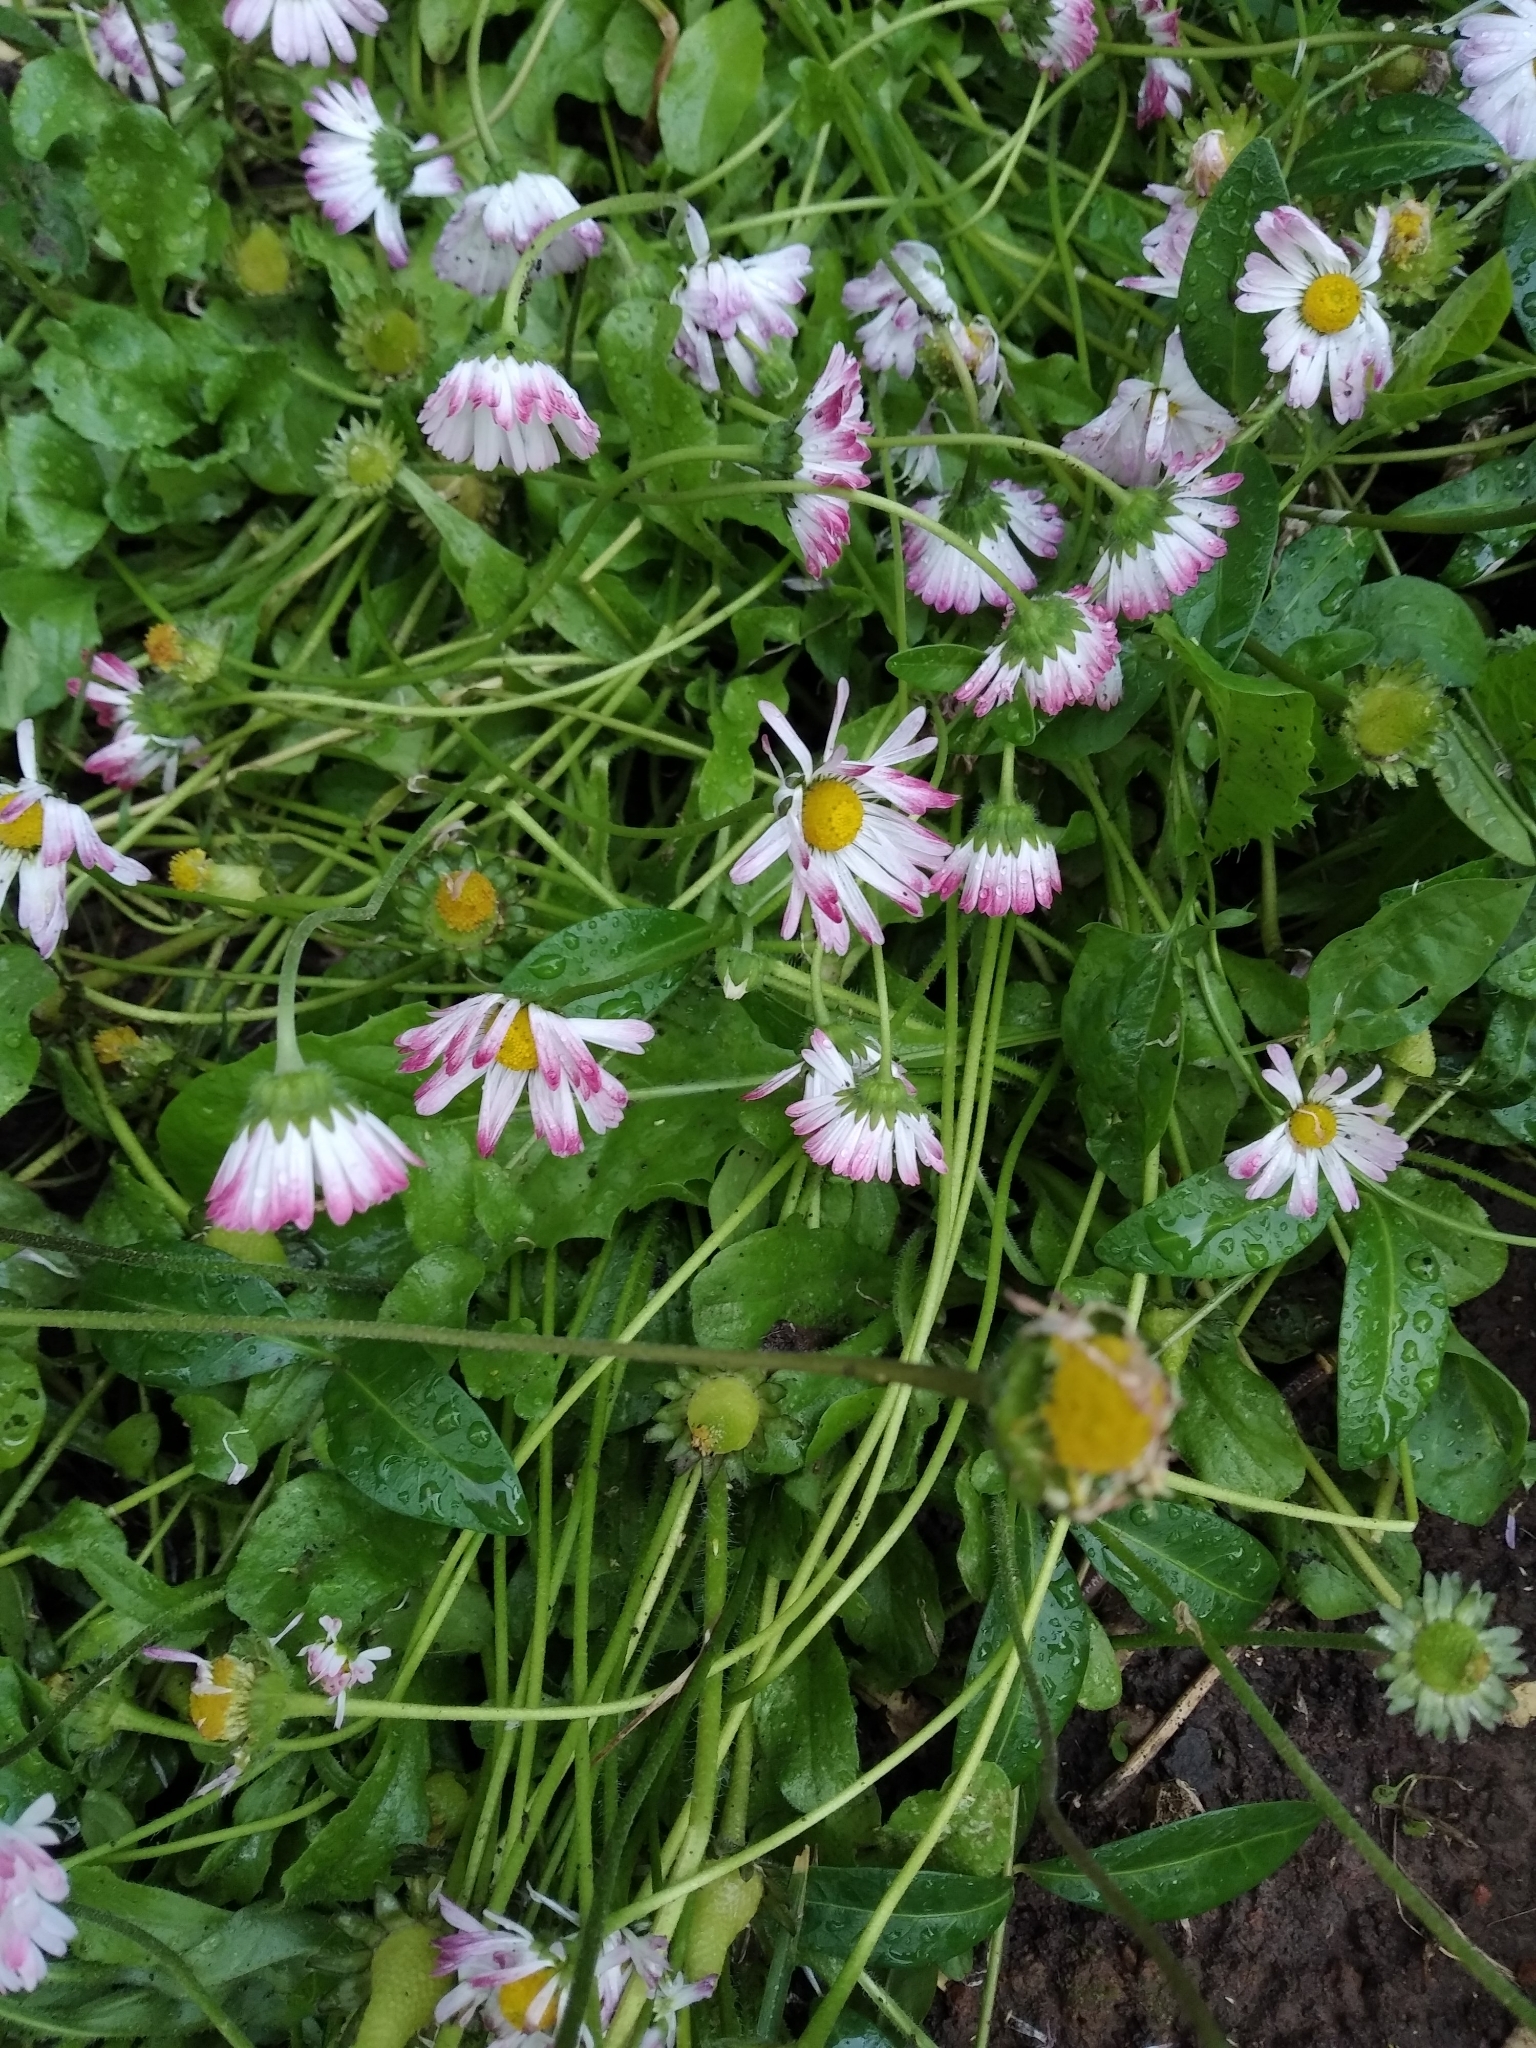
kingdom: Plantae
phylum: Tracheophyta
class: Magnoliopsida
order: Asterales
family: Asteraceae
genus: Bellis
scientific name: Bellis perennis
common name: Lawndaisy
